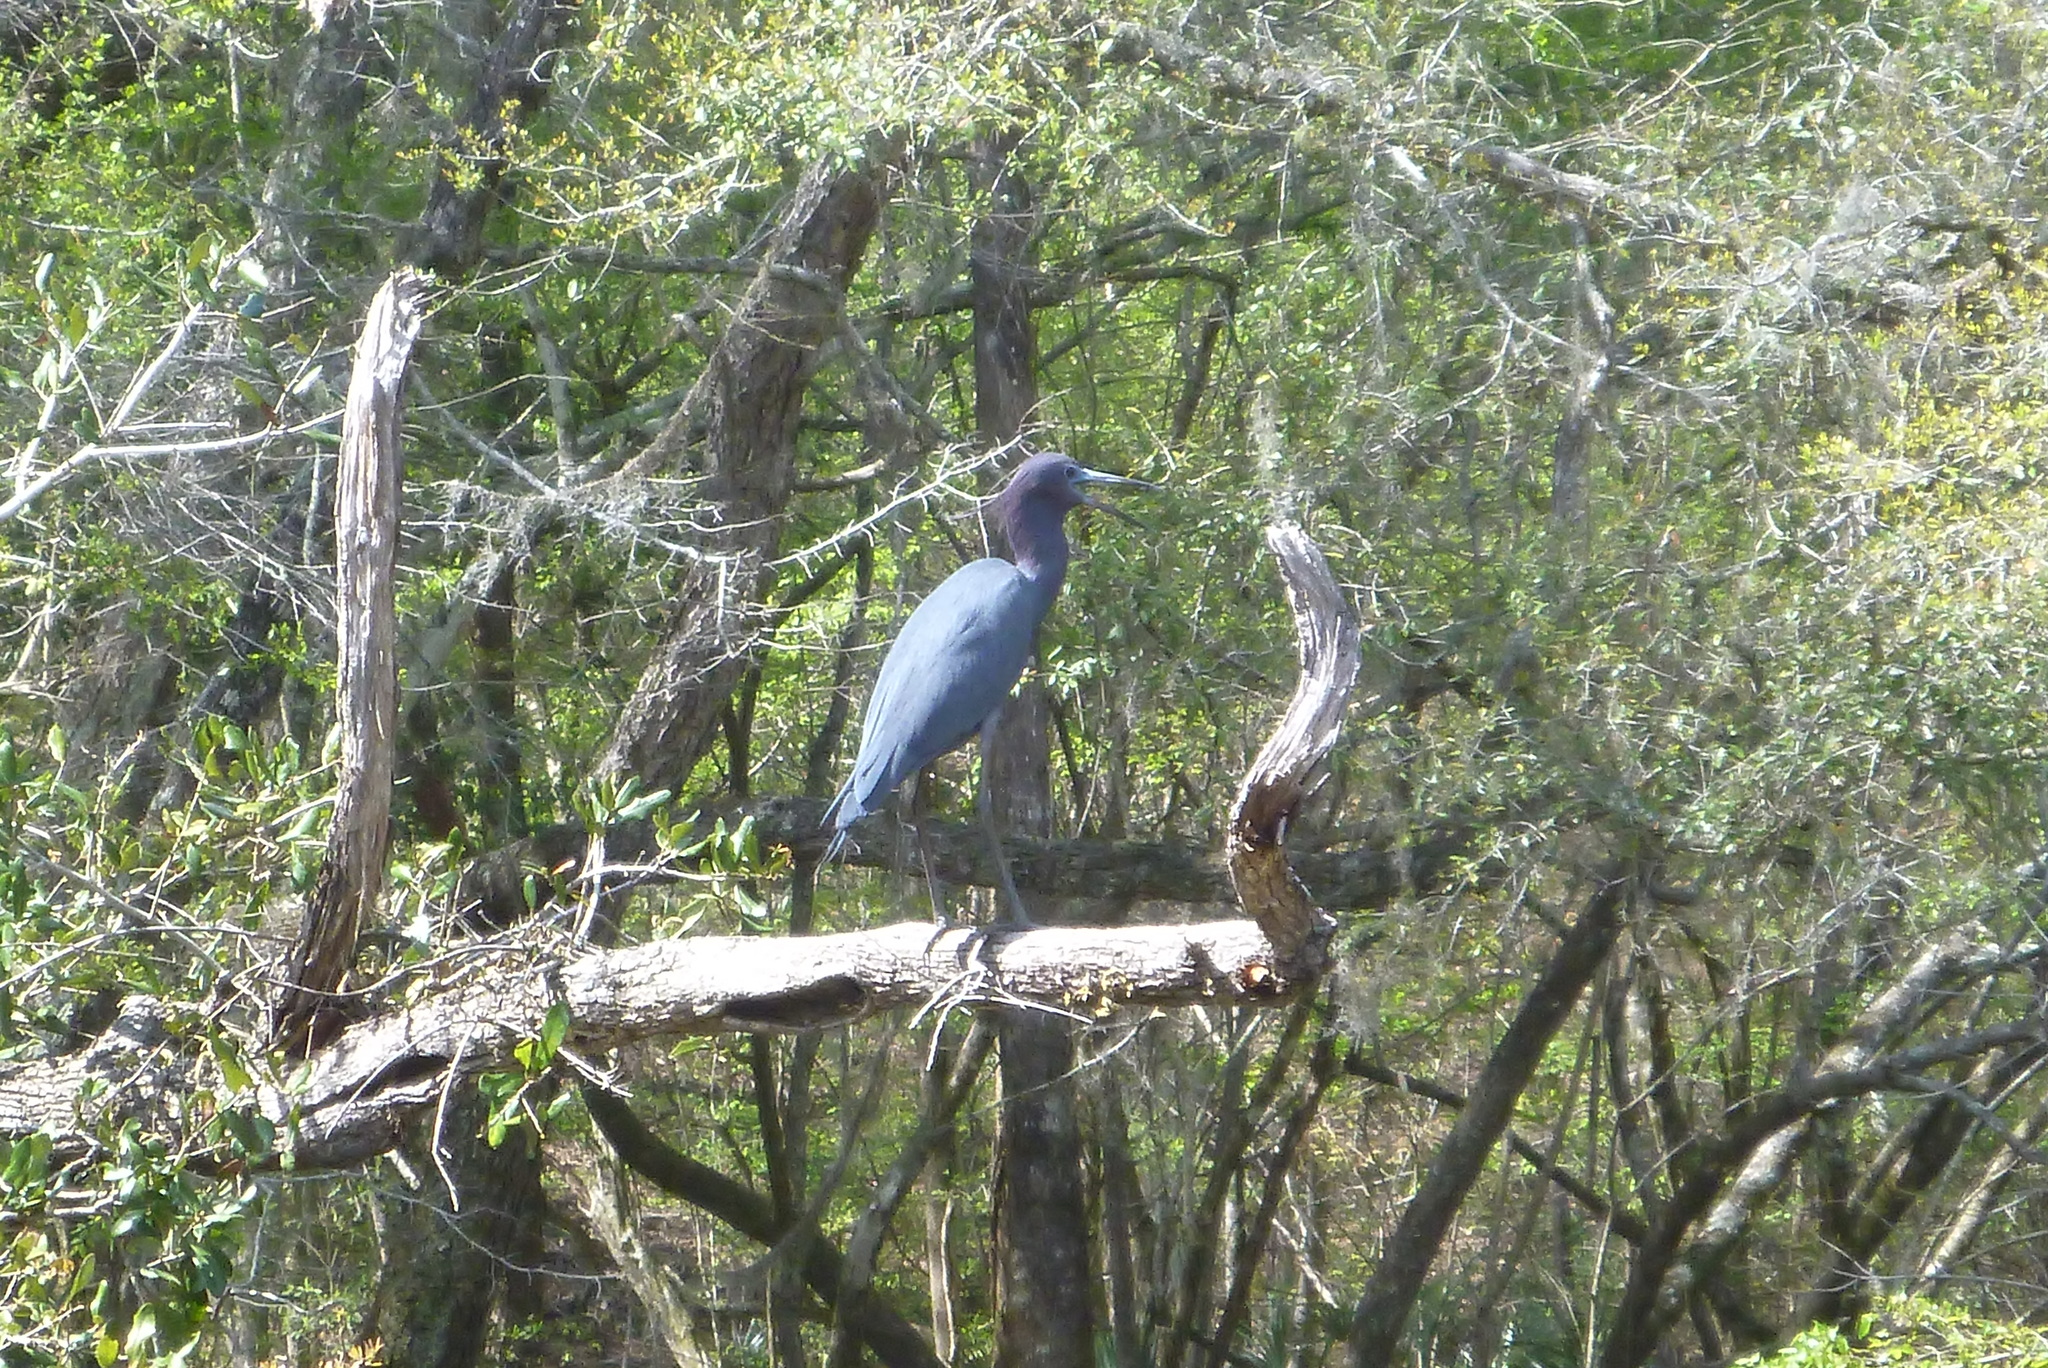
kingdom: Animalia
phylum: Chordata
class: Aves
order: Pelecaniformes
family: Ardeidae
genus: Egretta
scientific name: Egretta caerulea
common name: Little blue heron
